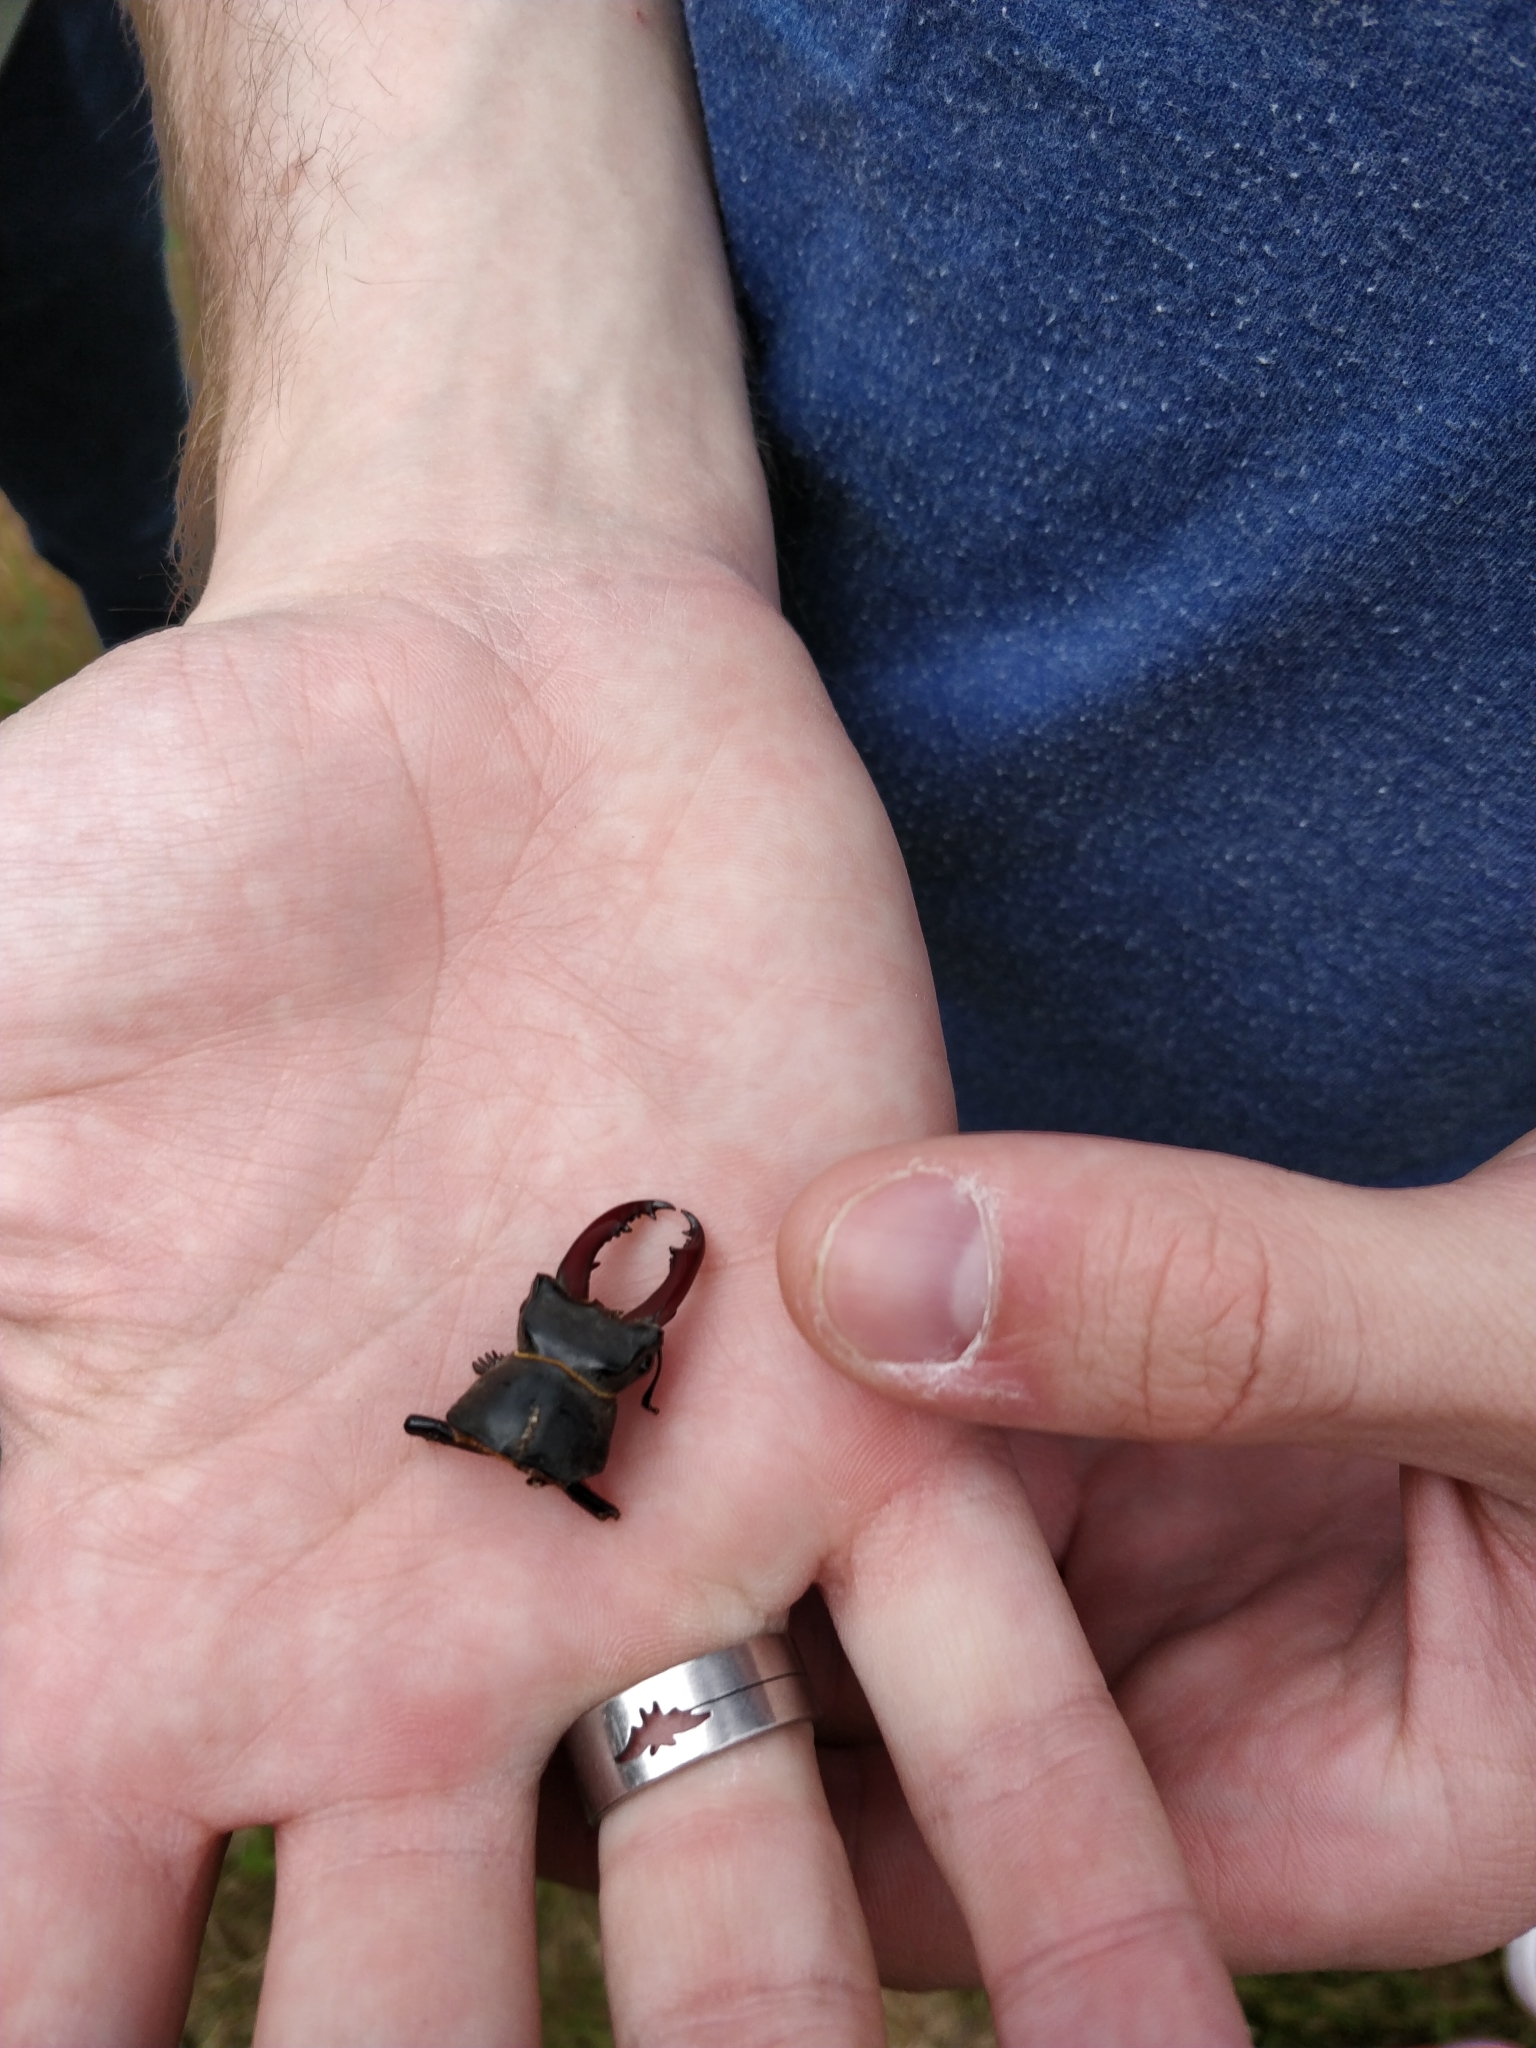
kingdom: Animalia
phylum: Arthropoda
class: Insecta
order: Coleoptera
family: Lucanidae
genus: Lucanus
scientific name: Lucanus cervus
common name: Stag beetle
